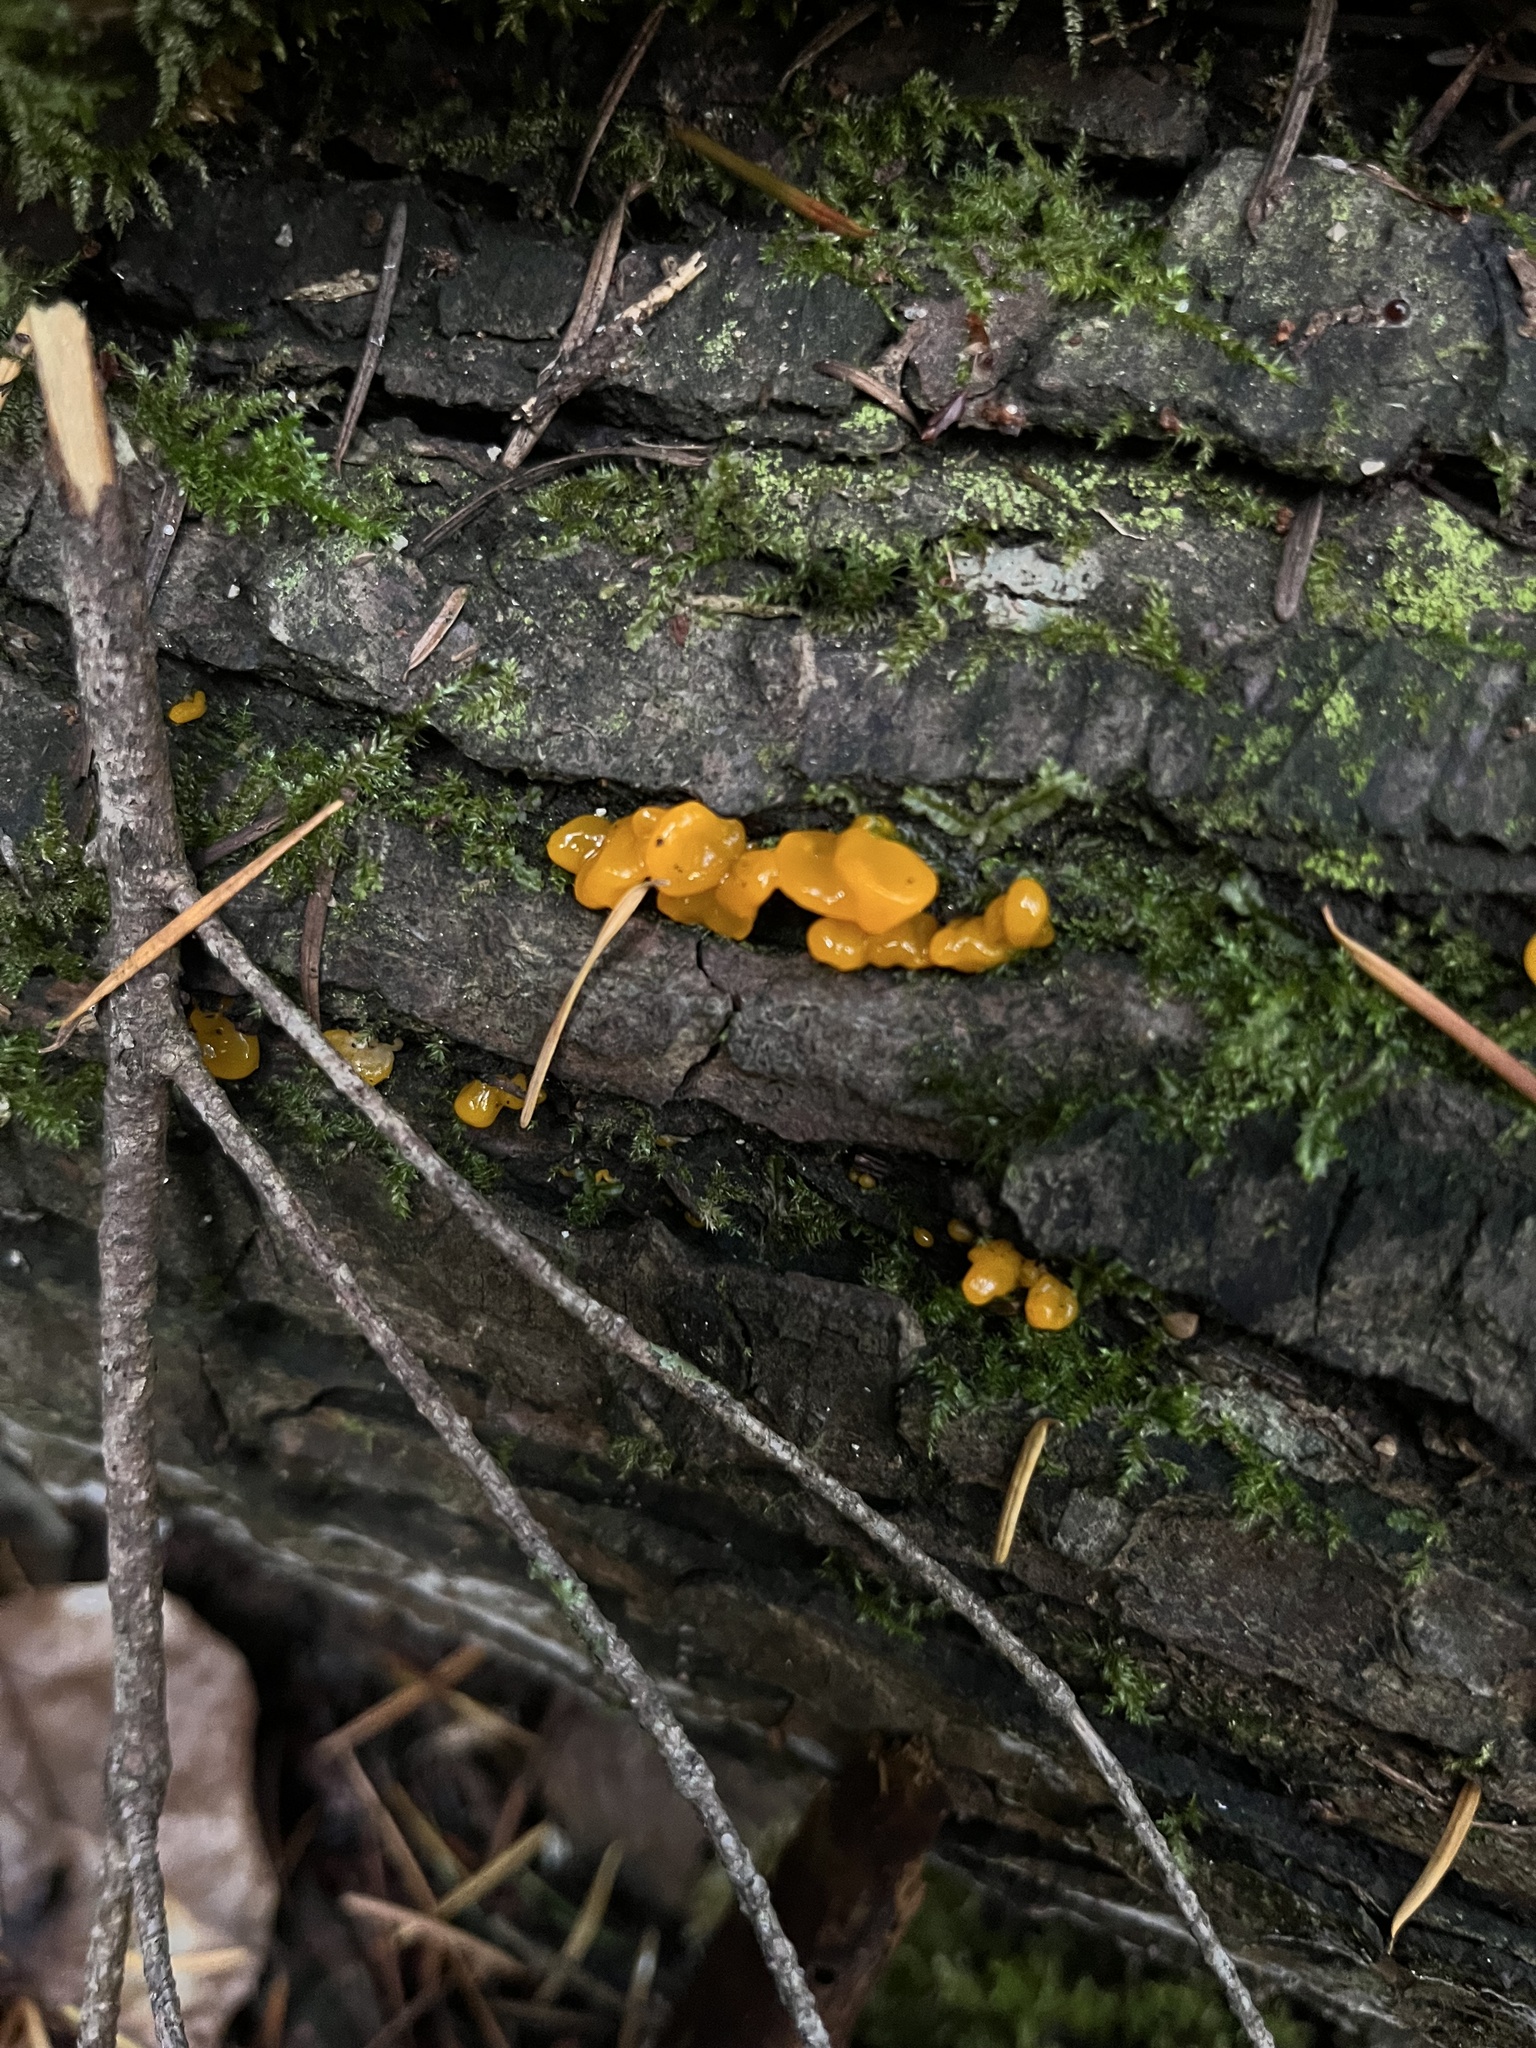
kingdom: Fungi
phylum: Basidiomycota
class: Dacrymycetes
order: Dacrymycetales
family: Dacrymycetaceae
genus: Dacrymyces
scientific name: Dacrymyces chrysospermus
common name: Orange jelly spot
